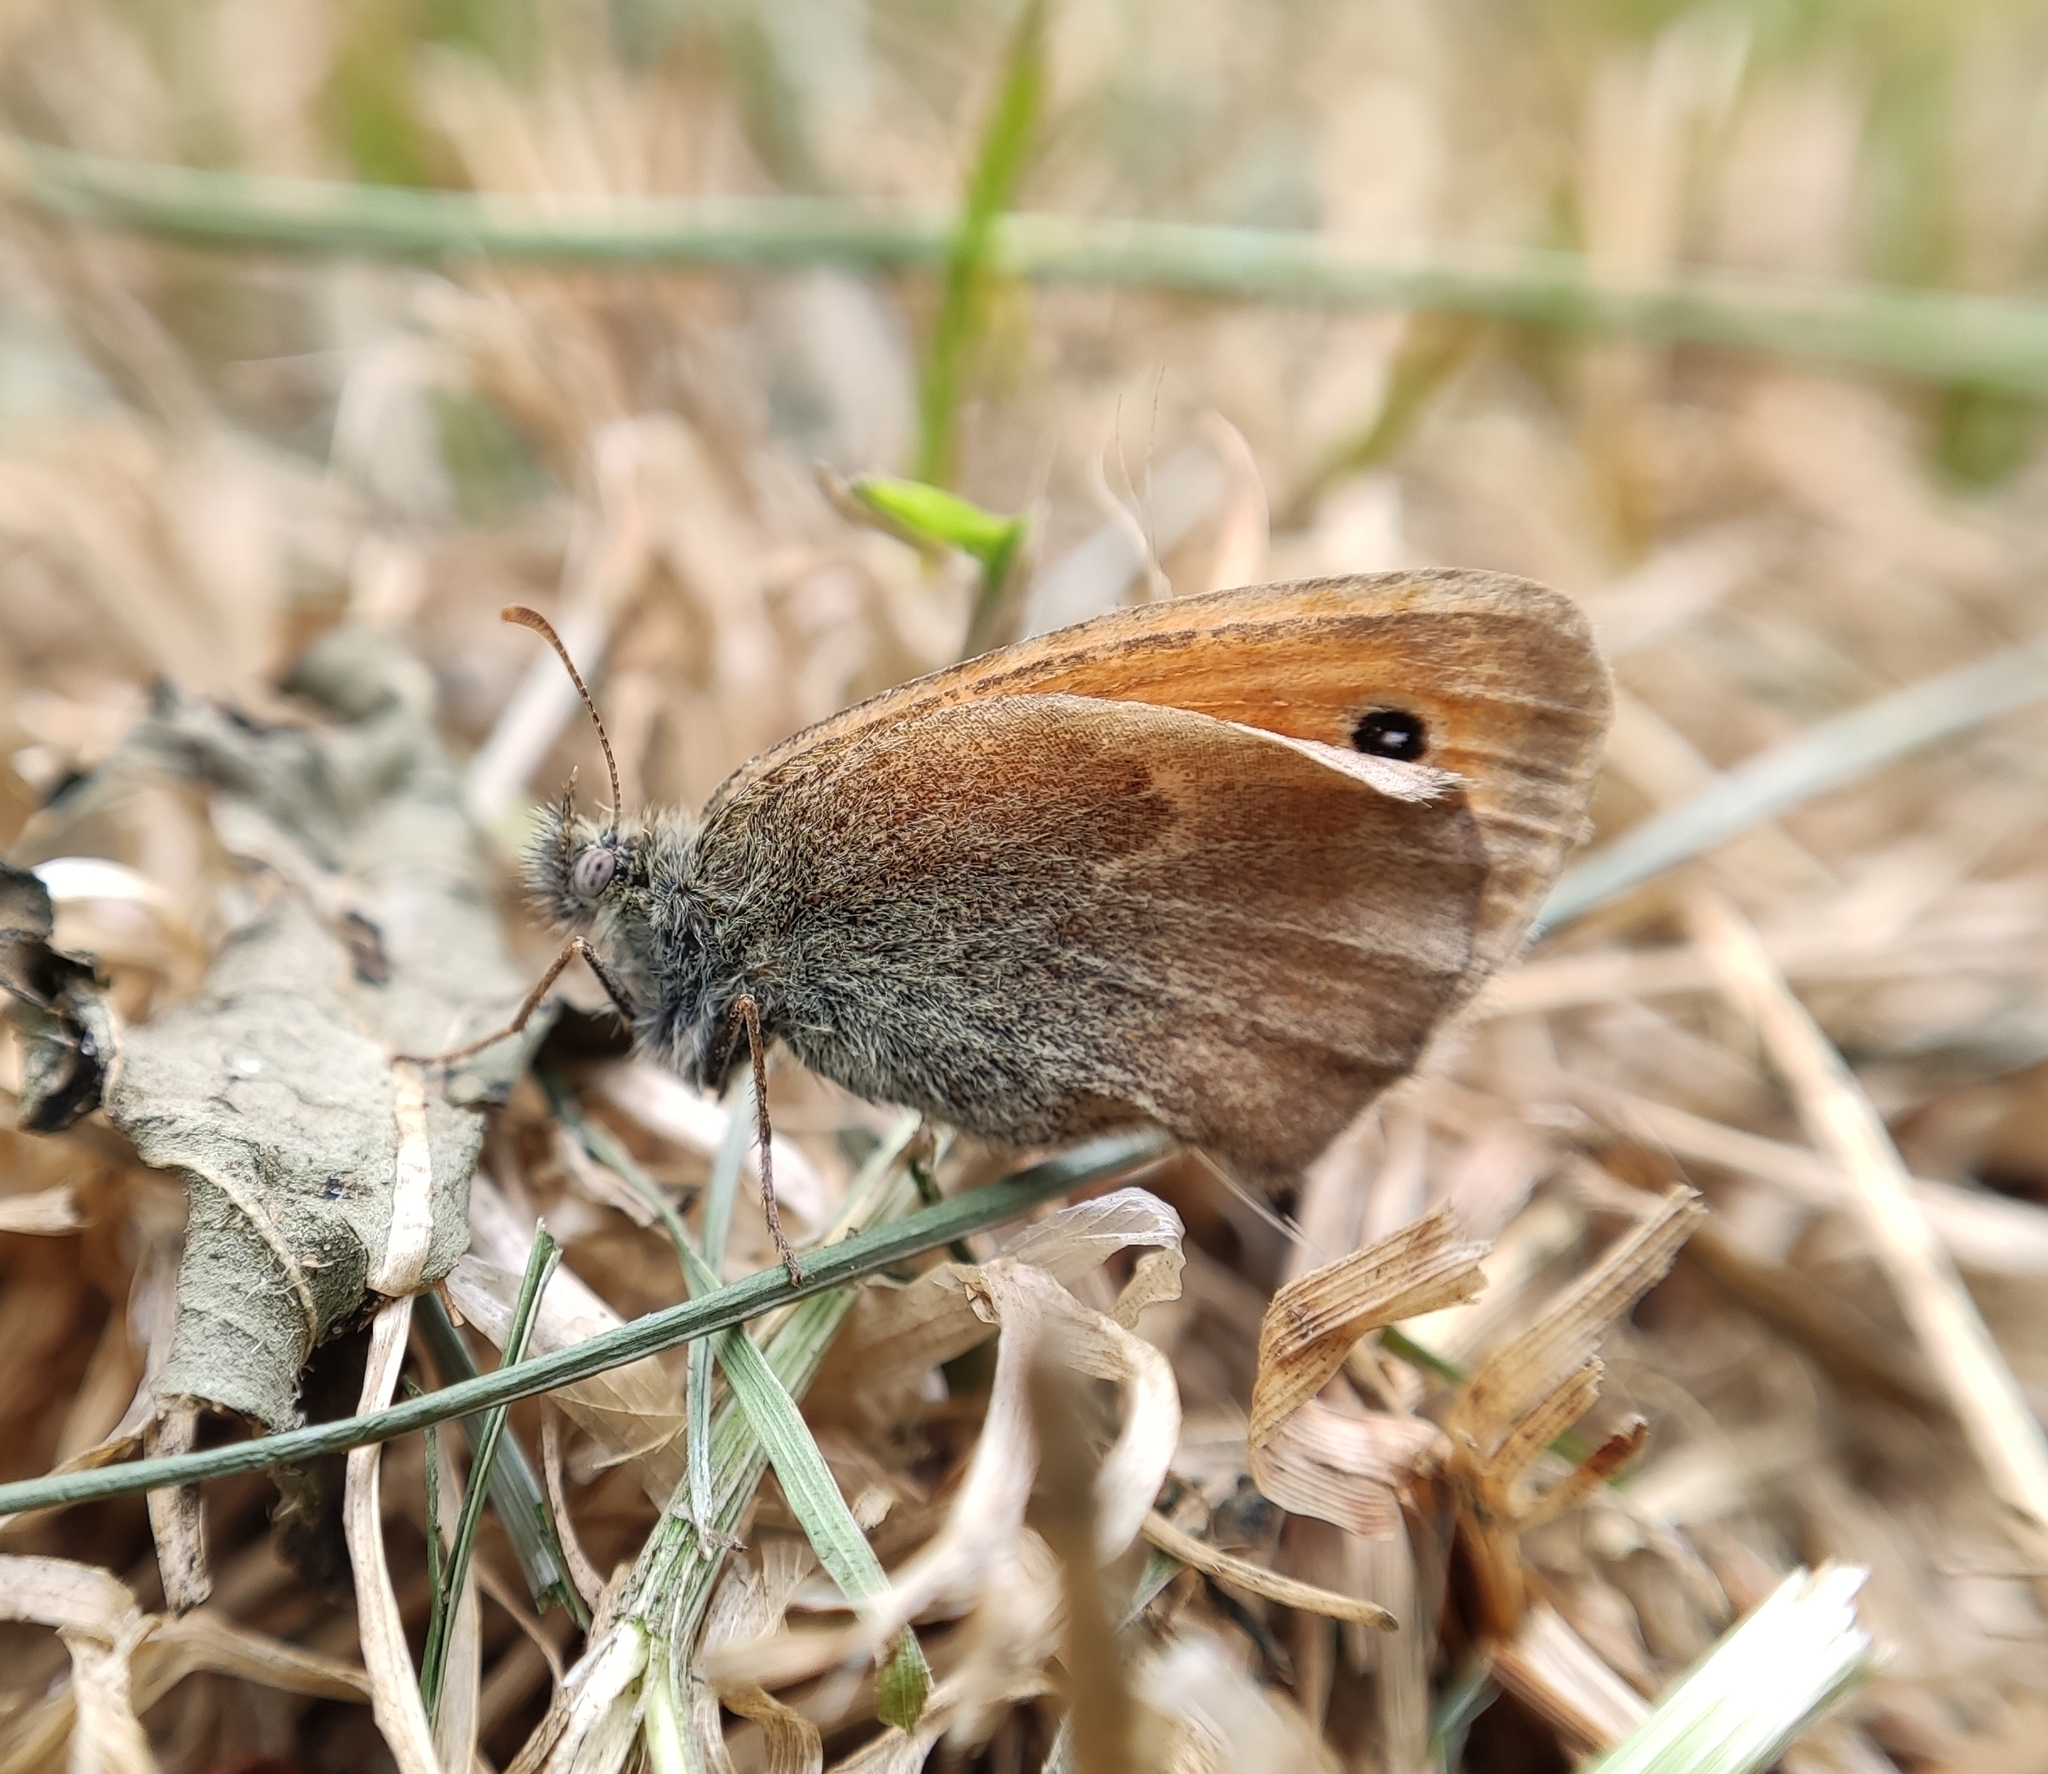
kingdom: Animalia
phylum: Arthropoda
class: Insecta
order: Lepidoptera
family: Nymphalidae
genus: Coenonympha
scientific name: Coenonympha pamphilus
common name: Small heath
